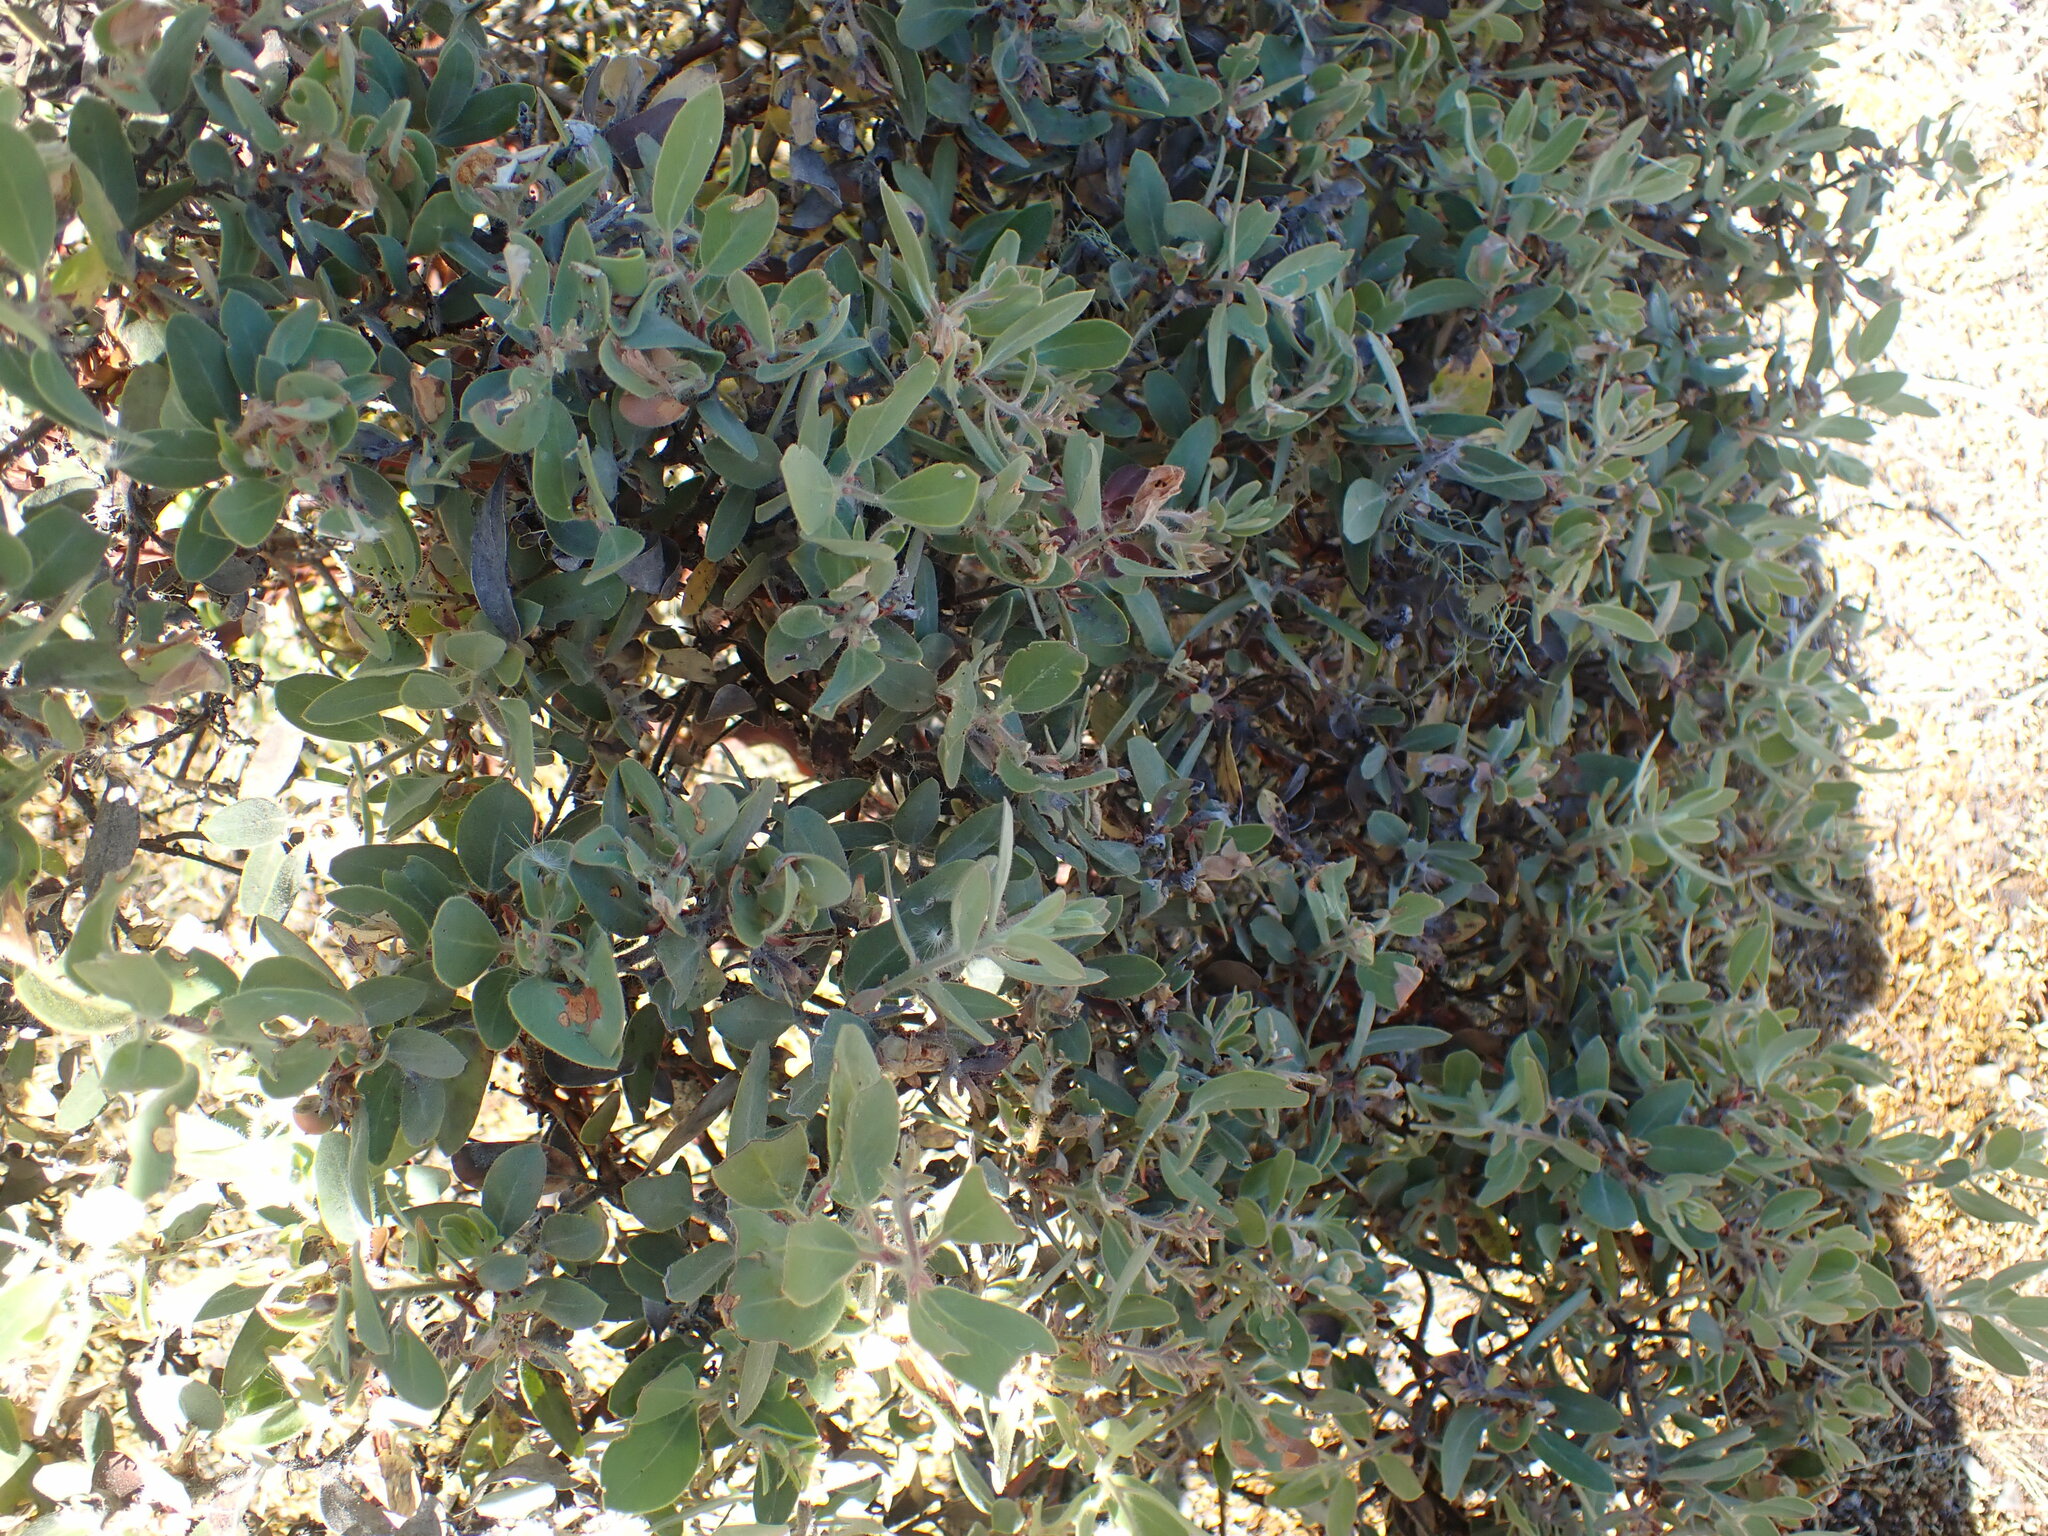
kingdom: Plantae
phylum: Tracheophyta
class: Magnoliopsida
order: Ericales
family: Ericaceae
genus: Arctostaphylos
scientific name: Arctostaphylos columbiana
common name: Bristly bearberry
